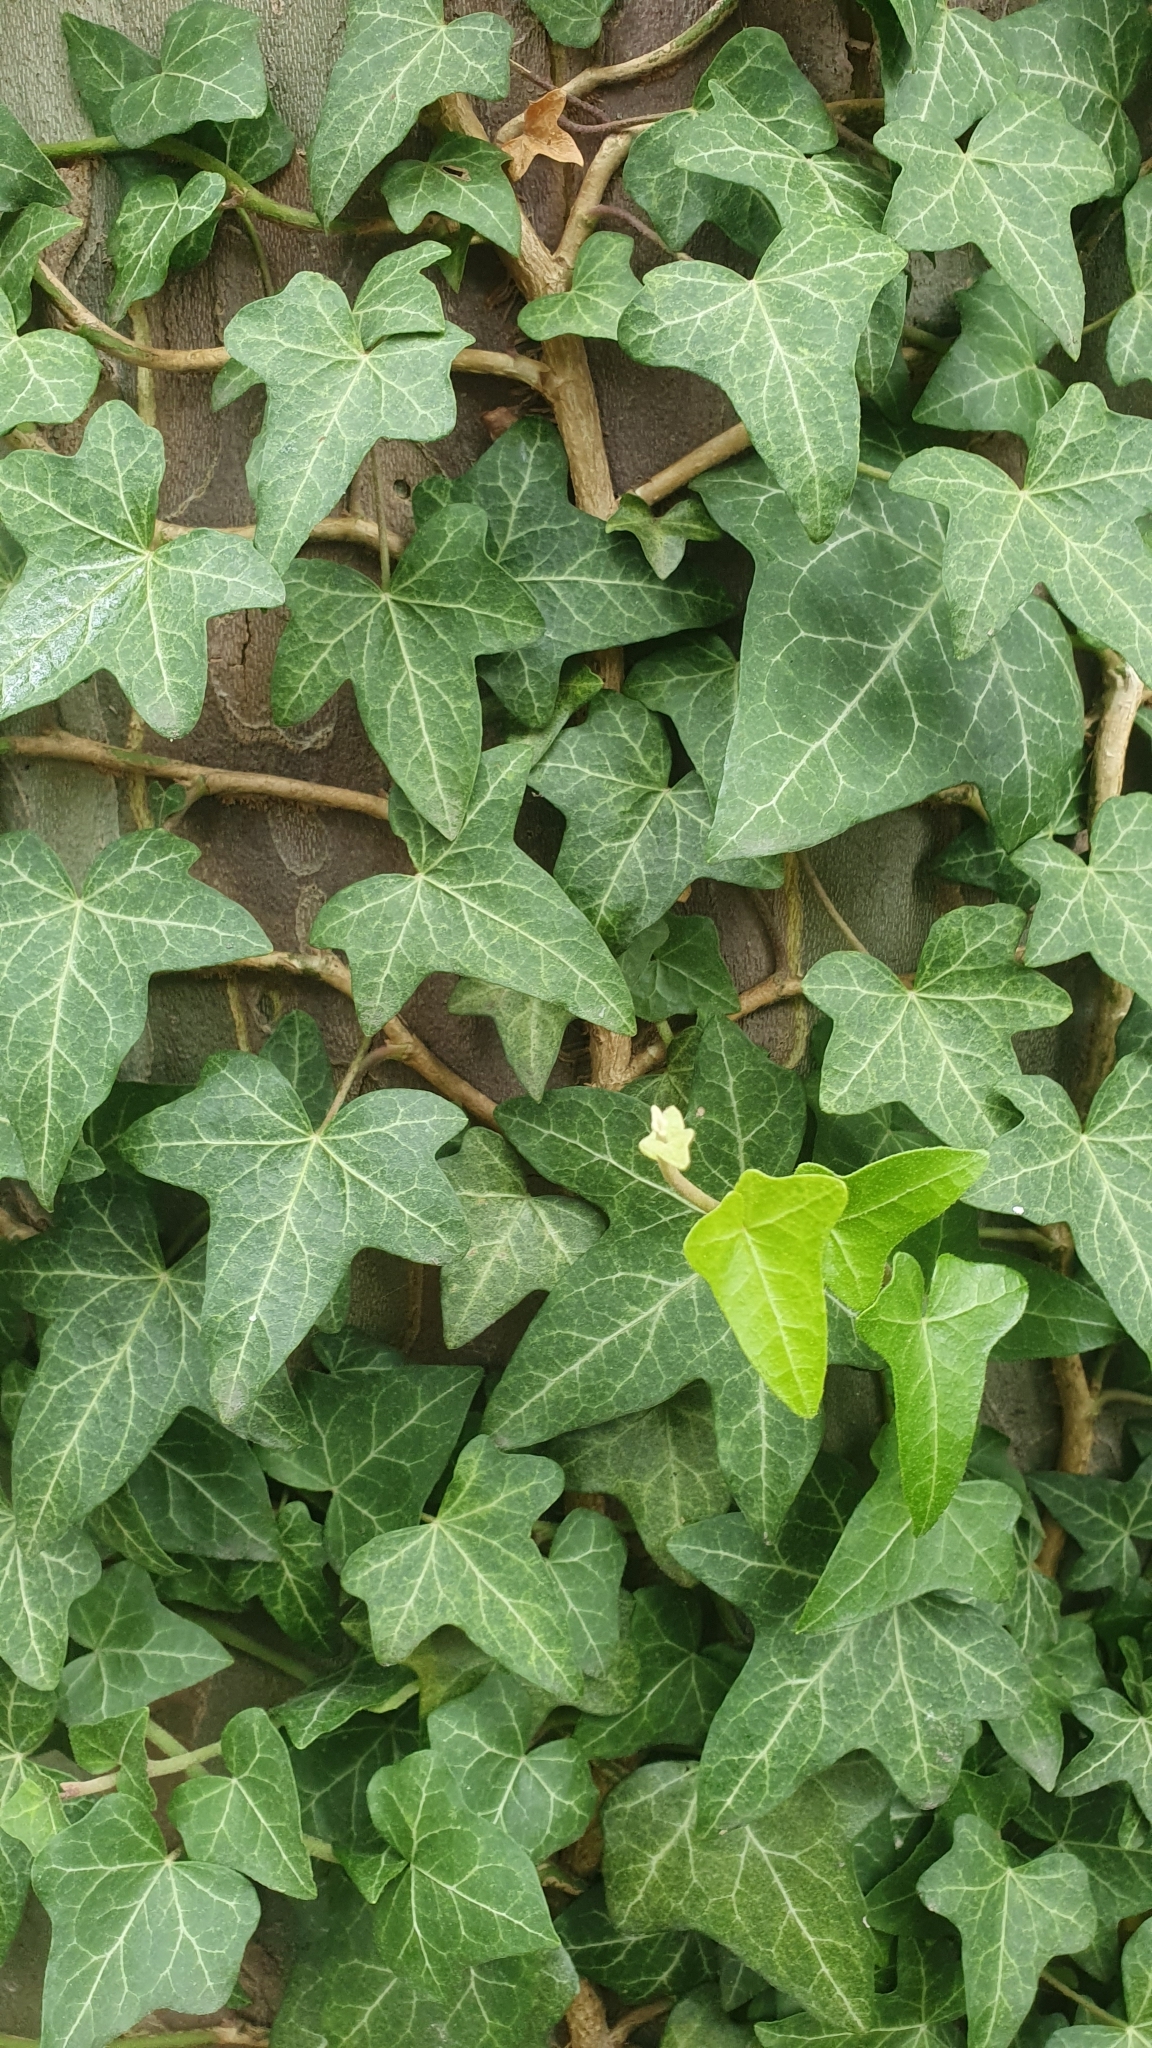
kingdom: Plantae
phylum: Tracheophyta
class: Magnoliopsida
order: Apiales
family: Araliaceae
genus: Hedera
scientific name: Hedera helix
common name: Ivy
